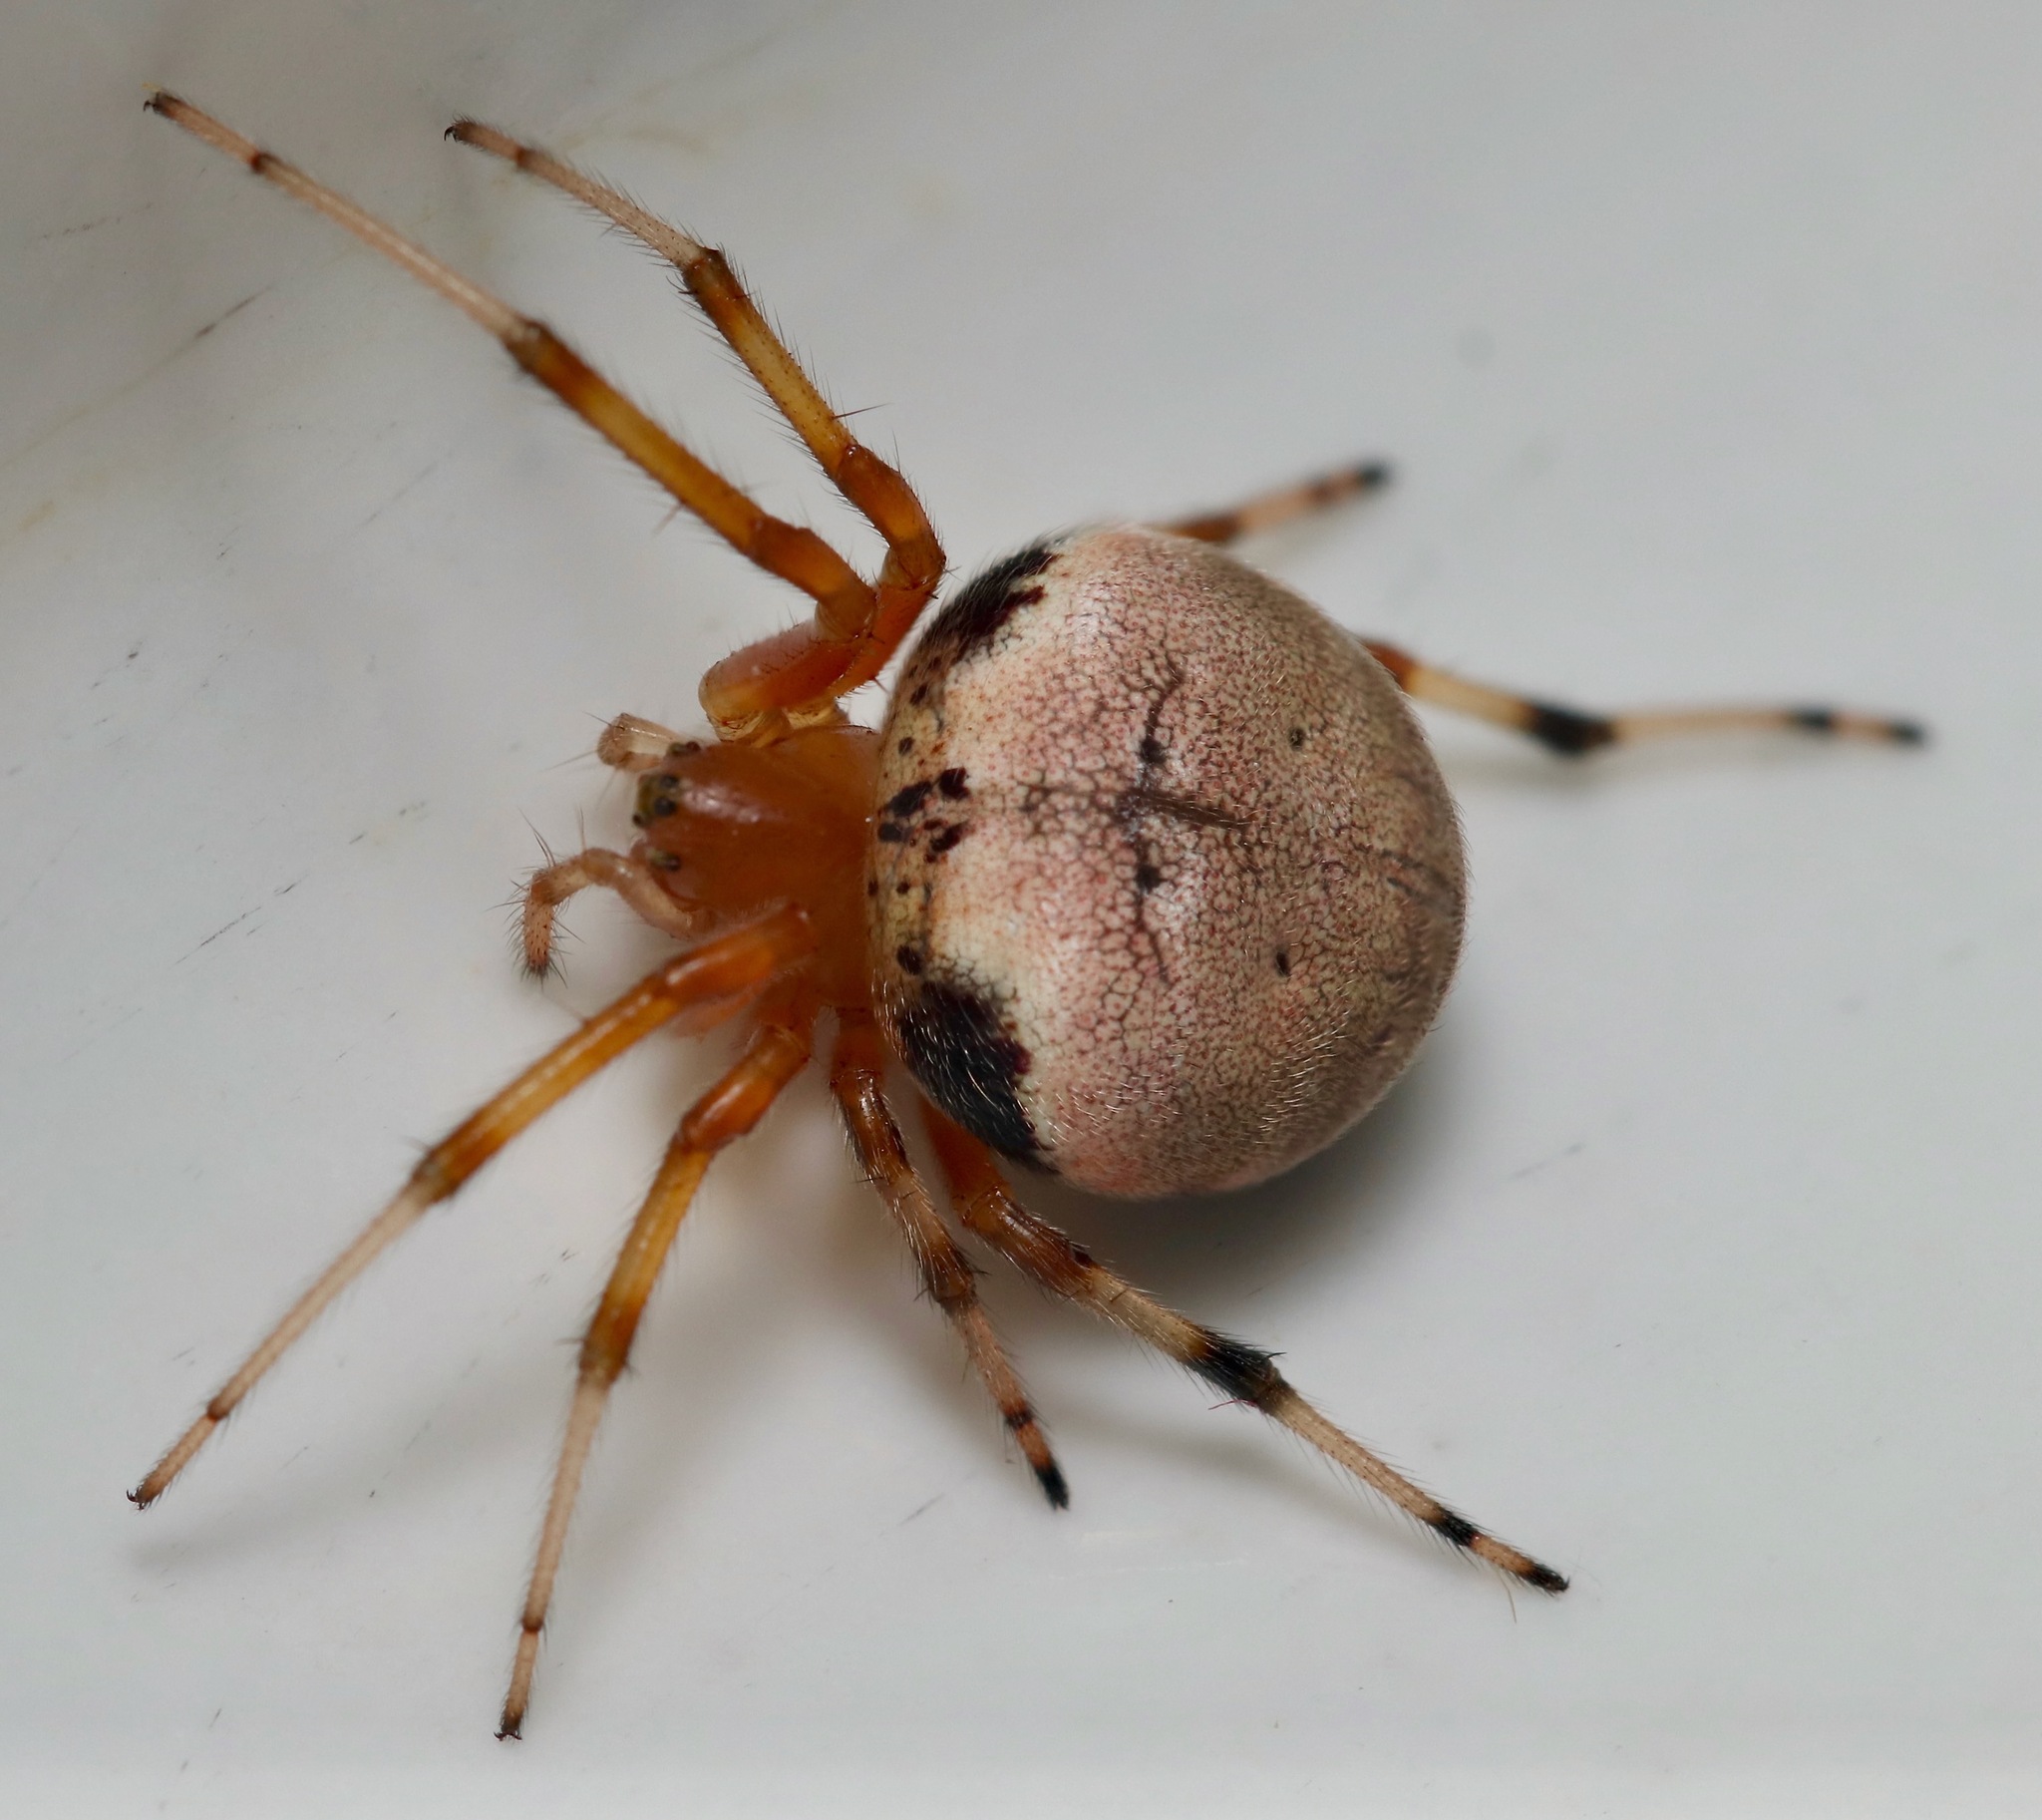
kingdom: Animalia
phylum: Arthropoda
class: Arachnida
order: Araneae
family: Araneidae
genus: Araneus
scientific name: Araneus thaddeus
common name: Lattice orbweaver
